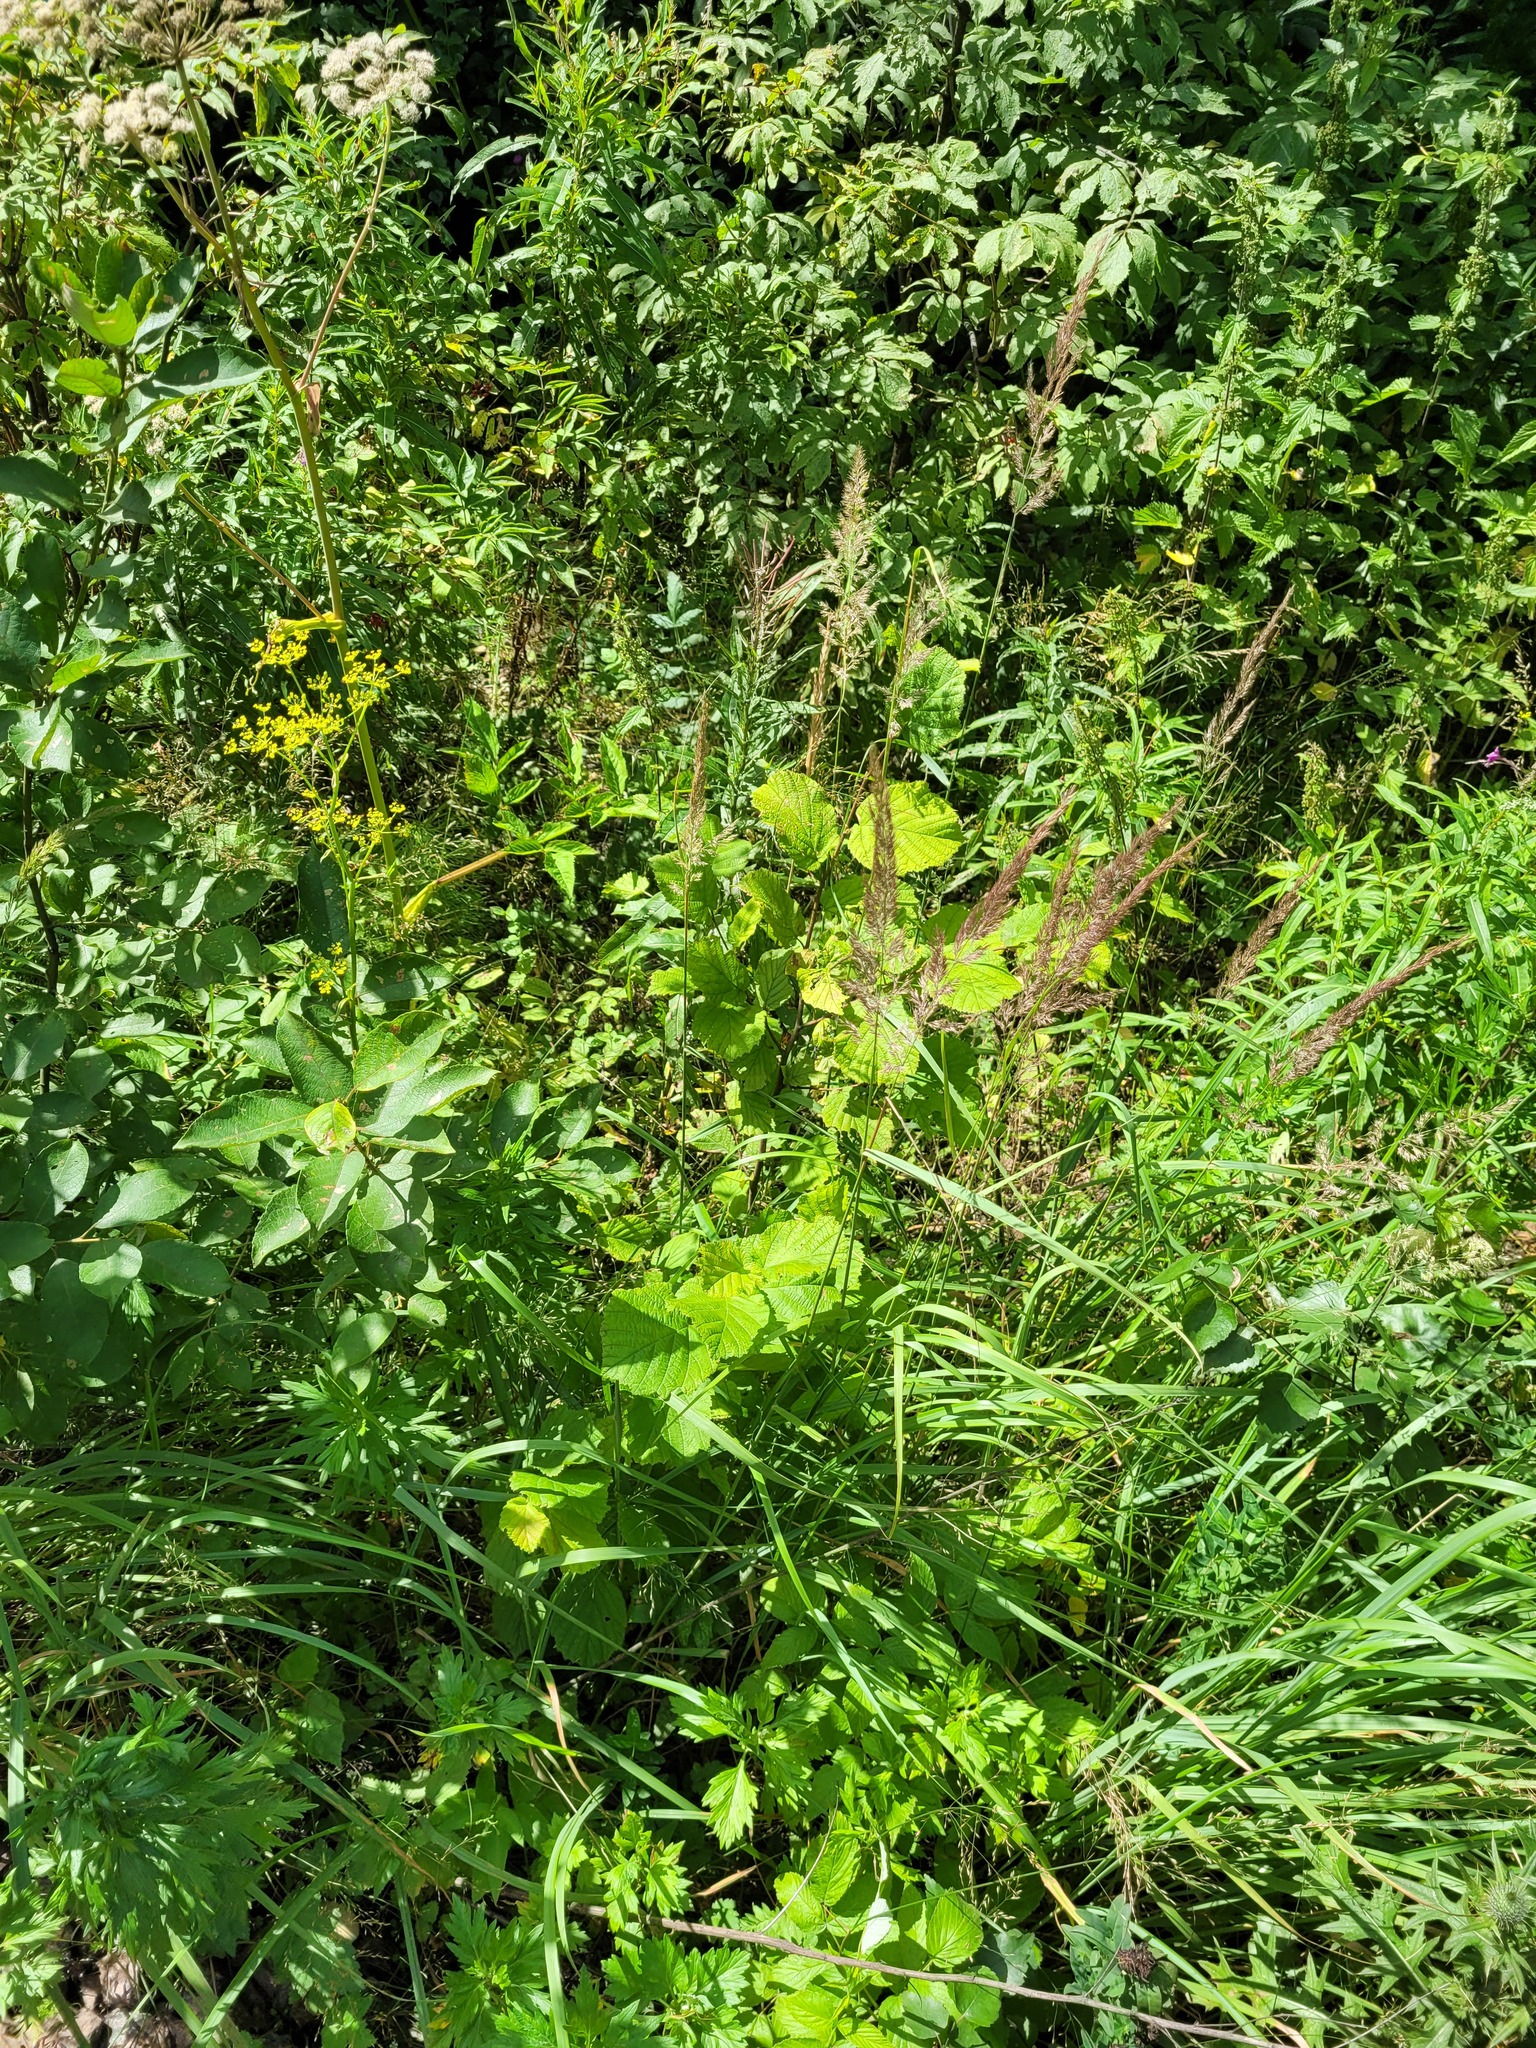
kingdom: Plantae
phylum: Tracheophyta
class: Magnoliopsida
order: Fagales
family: Betulaceae
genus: Corylus
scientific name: Corylus avellana
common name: European hazel
